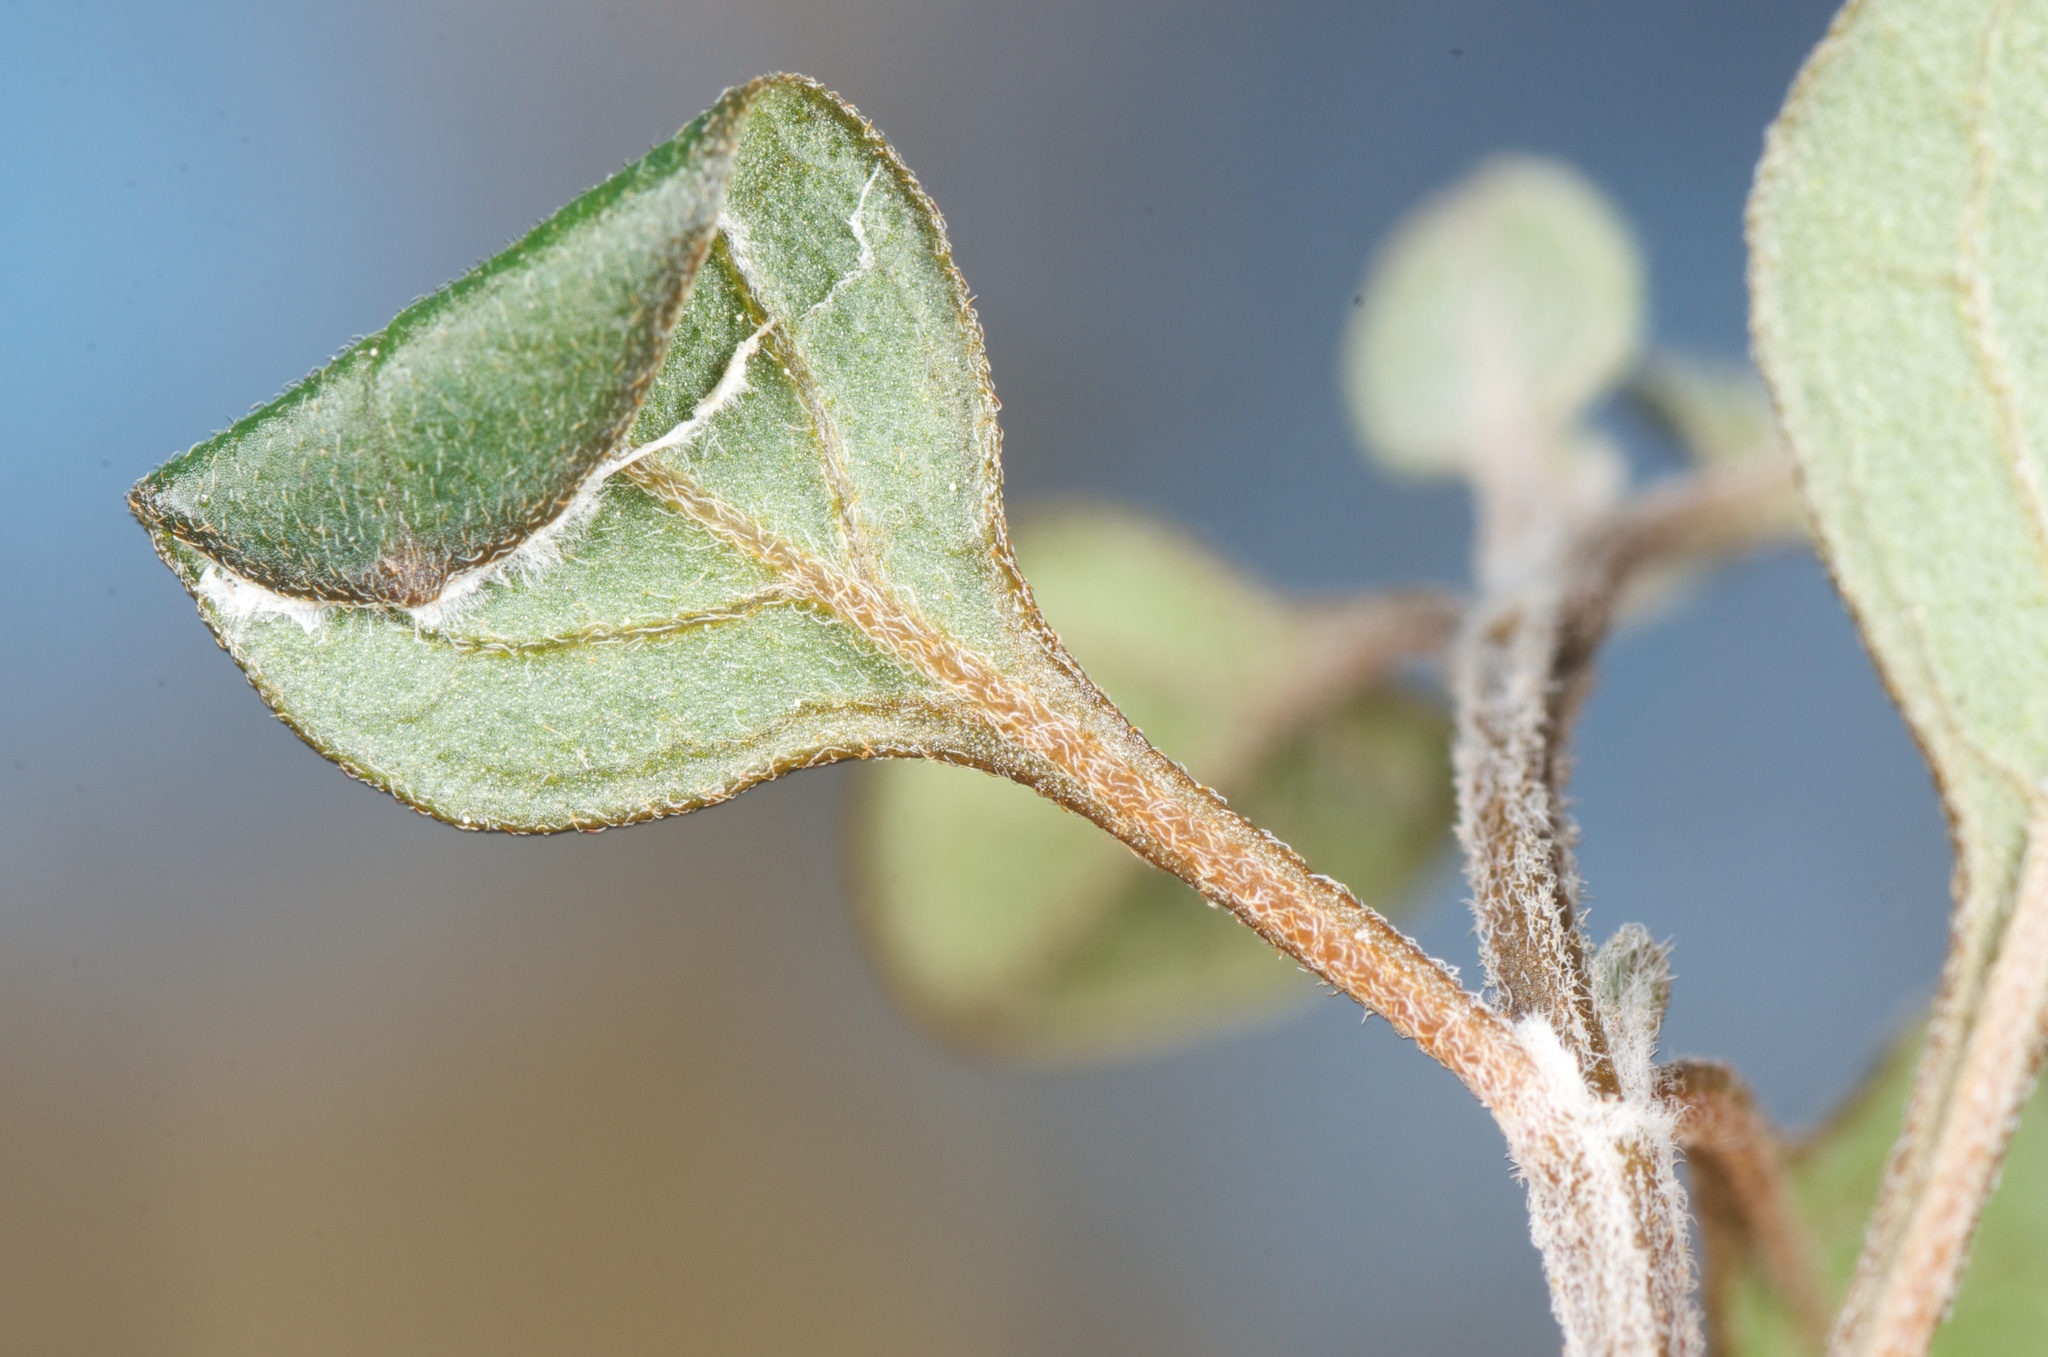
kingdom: Animalia
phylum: Arthropoda
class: Insecta
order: Lepidoptera
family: Gracillariidae
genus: Sabulopteryx
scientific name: Sabulopteryx botanica
